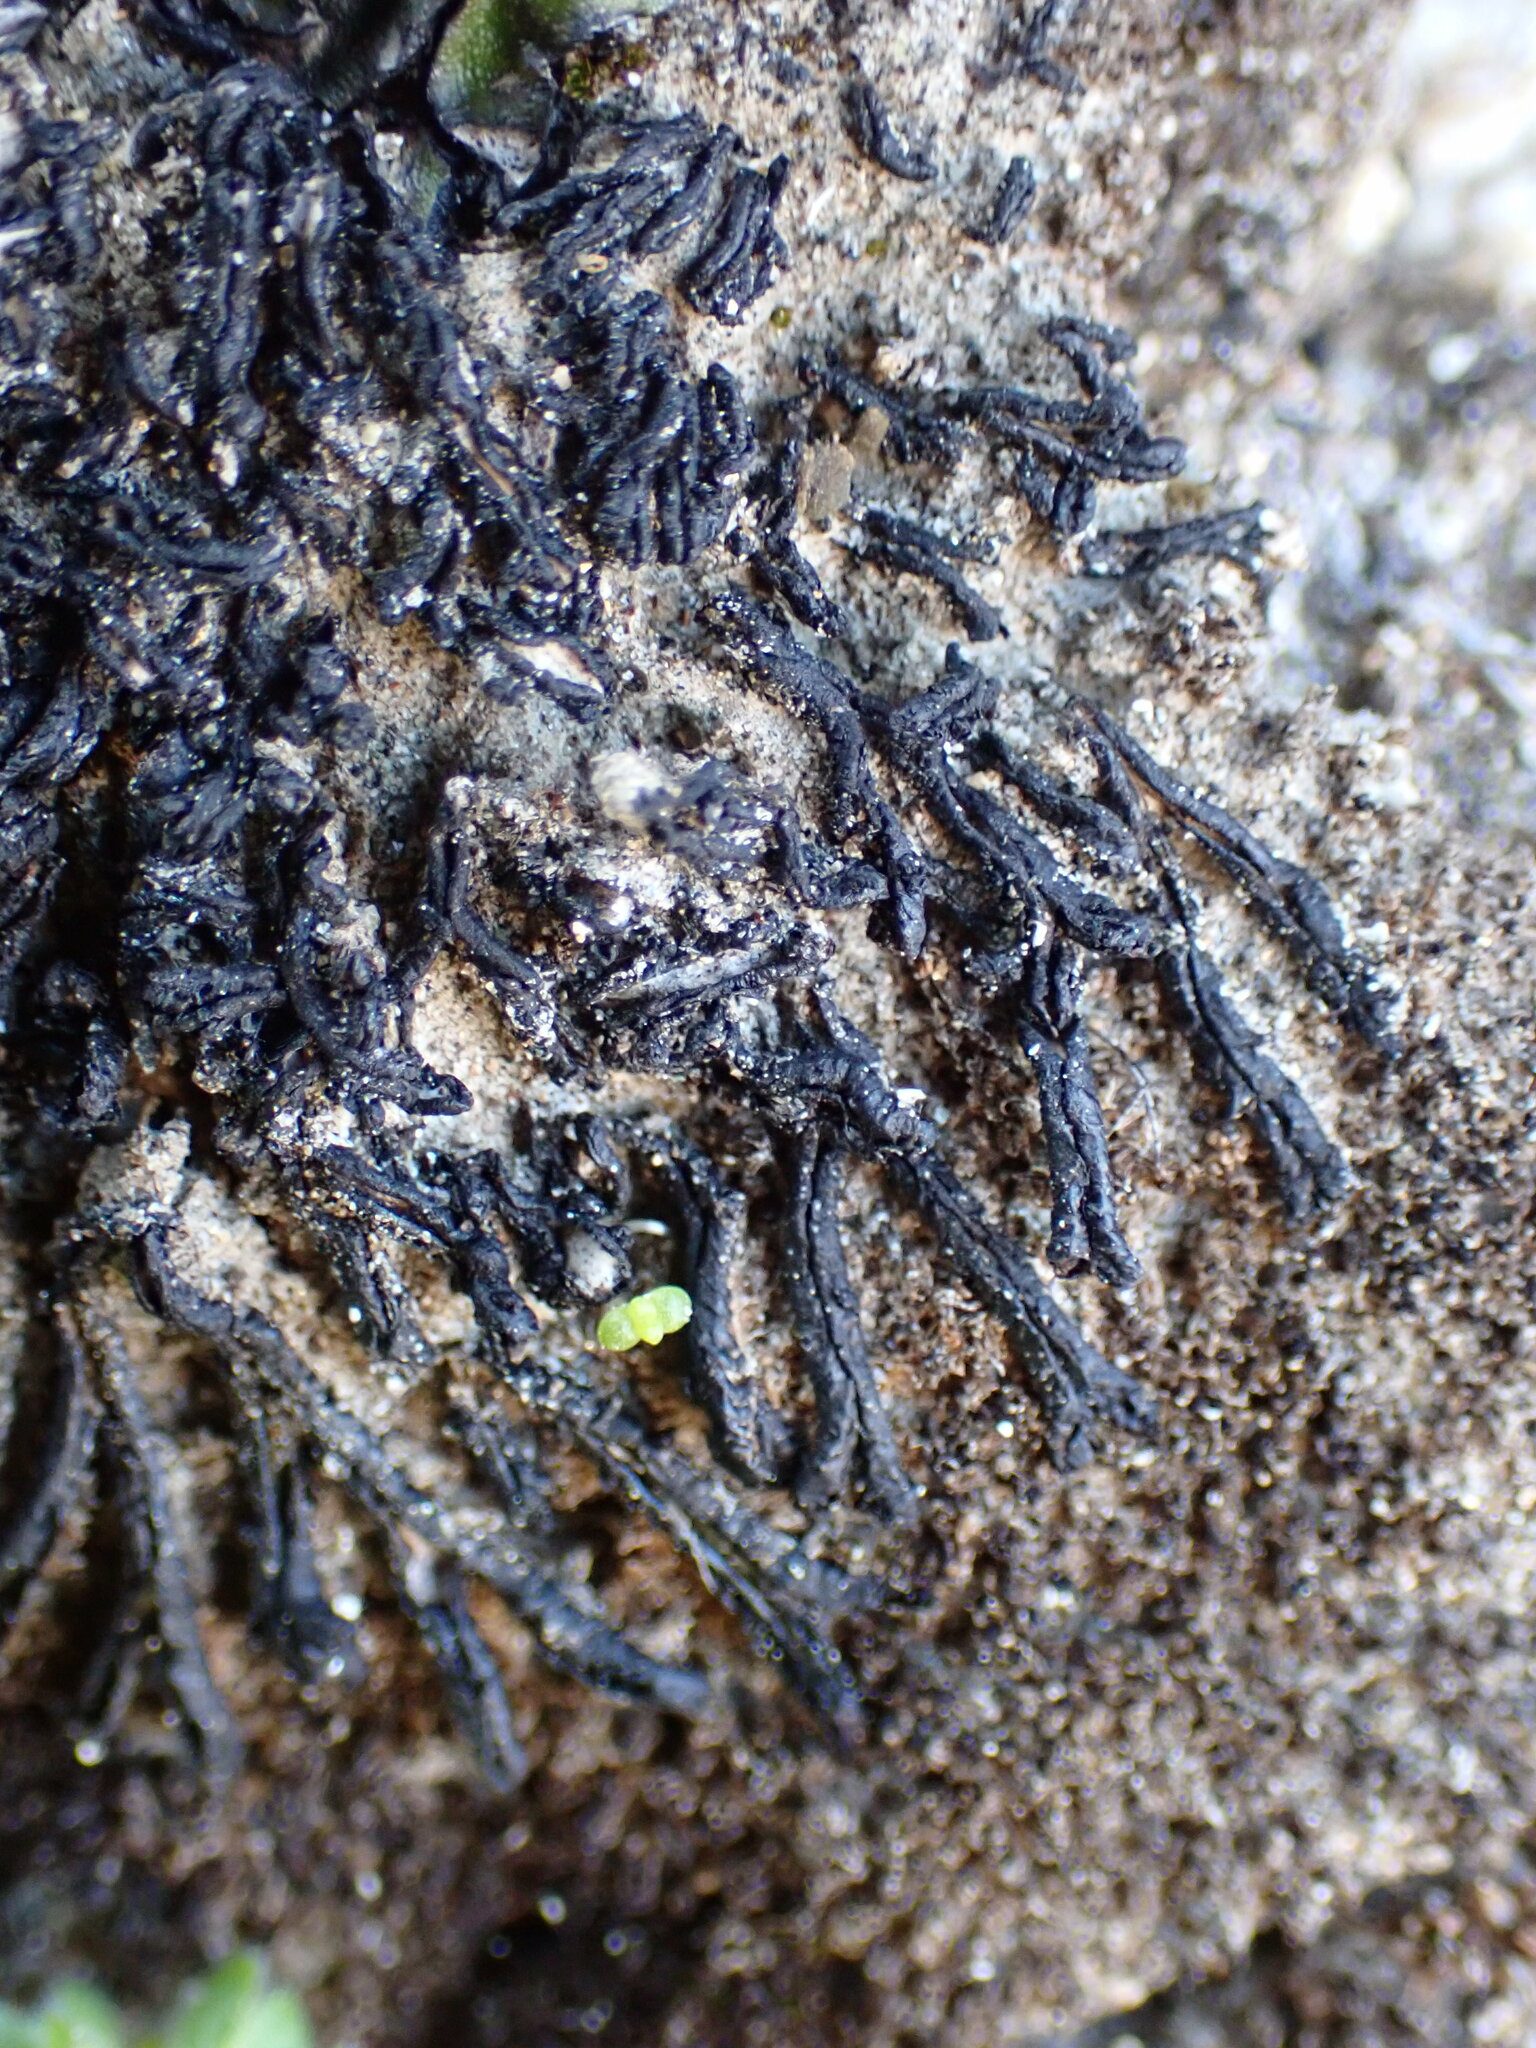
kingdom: Plantae
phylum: Marchantiophyta
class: Marchantiopsida
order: Marchantiales
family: Targioniaceae
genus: Targionia
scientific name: Targionia hypophylla
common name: Orobus-seed liverwort
